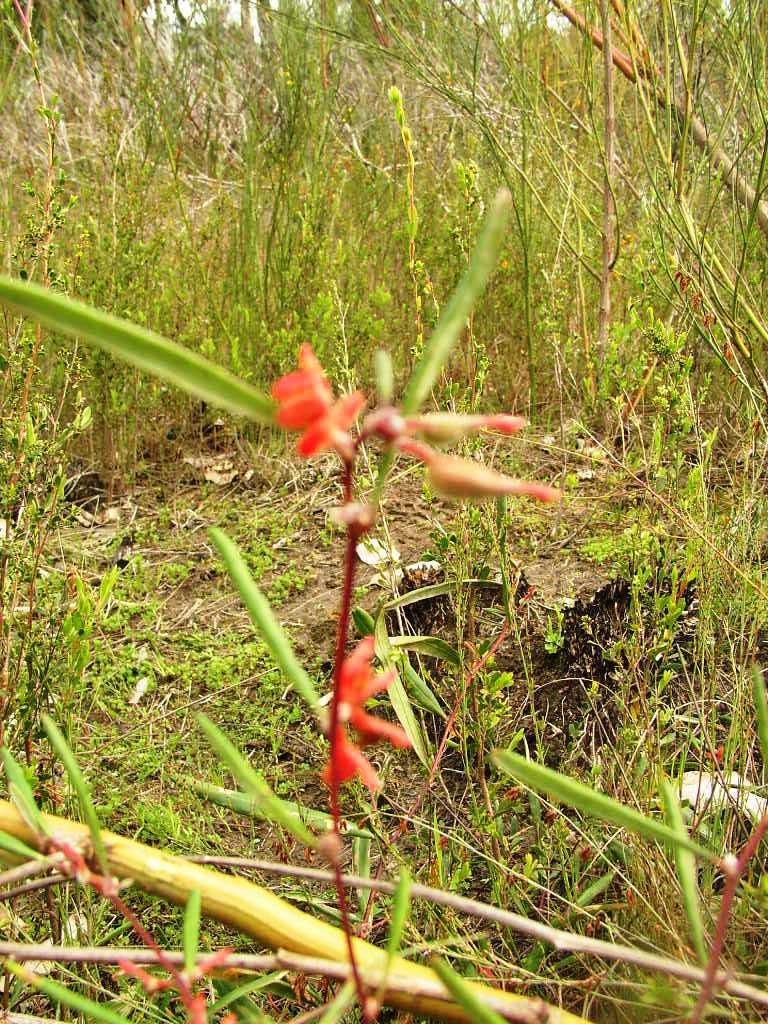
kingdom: Plantae
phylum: Tracheophyta
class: Magnoliopsida
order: Proteales
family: Proteaceae
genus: Grevillea
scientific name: Grevillea brachystylis
